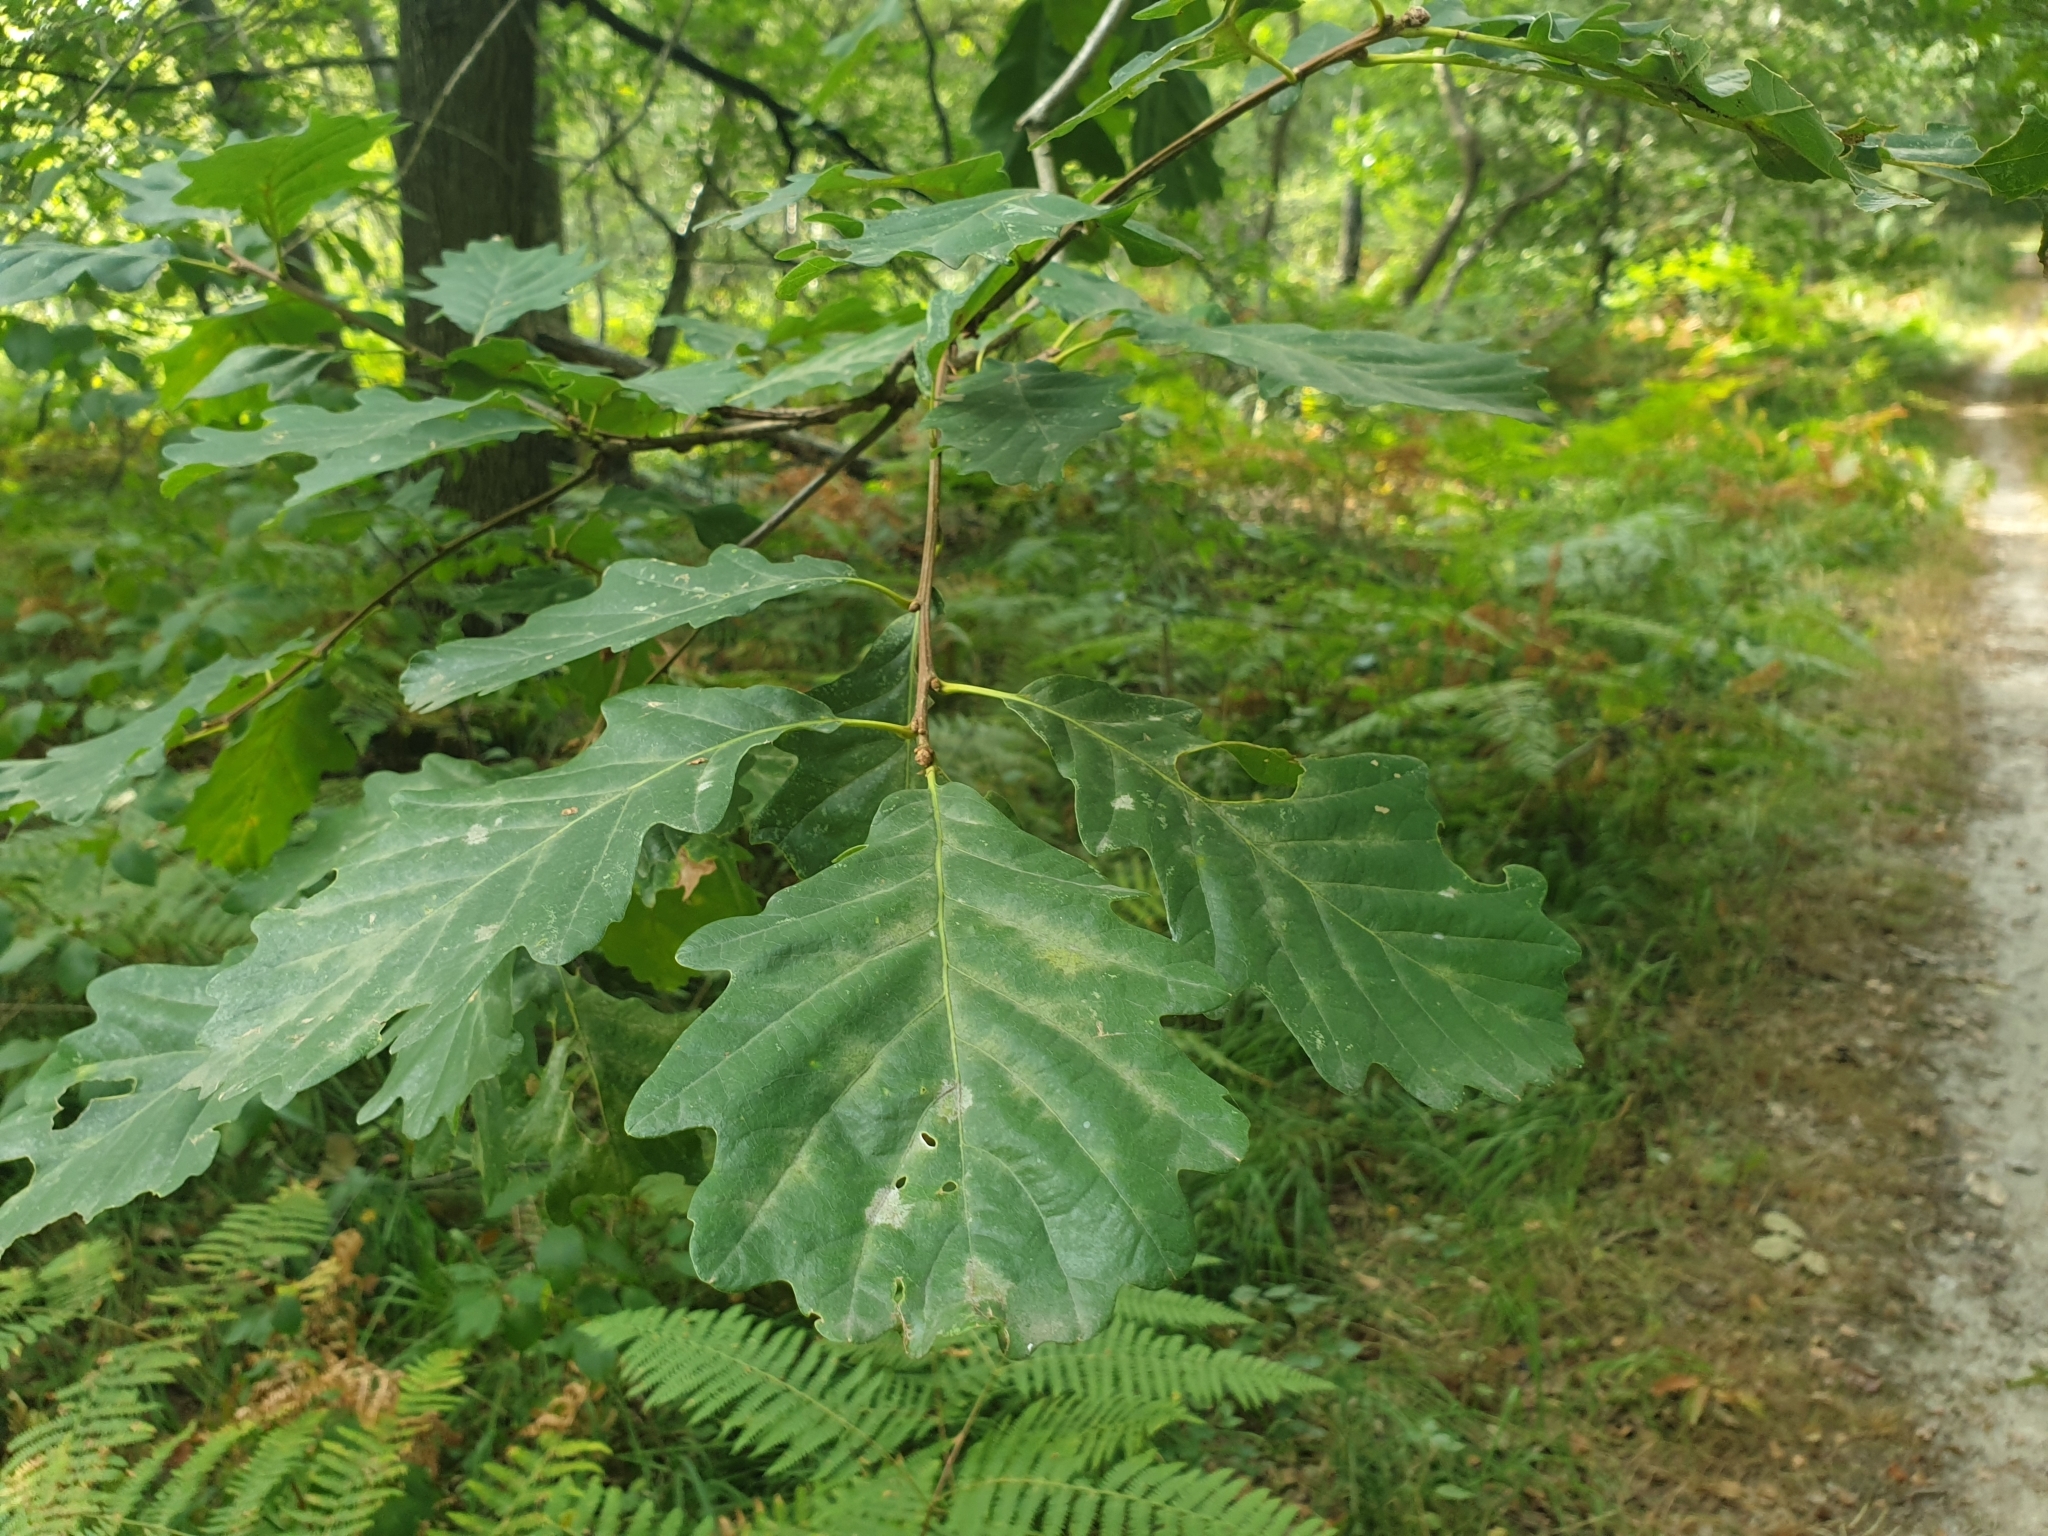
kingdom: Plantae
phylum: Tracheophyta
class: Magnoliopsida
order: Fagales
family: Fagaceae
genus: Quercus
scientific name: Quercus petraea
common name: Sessile oak
